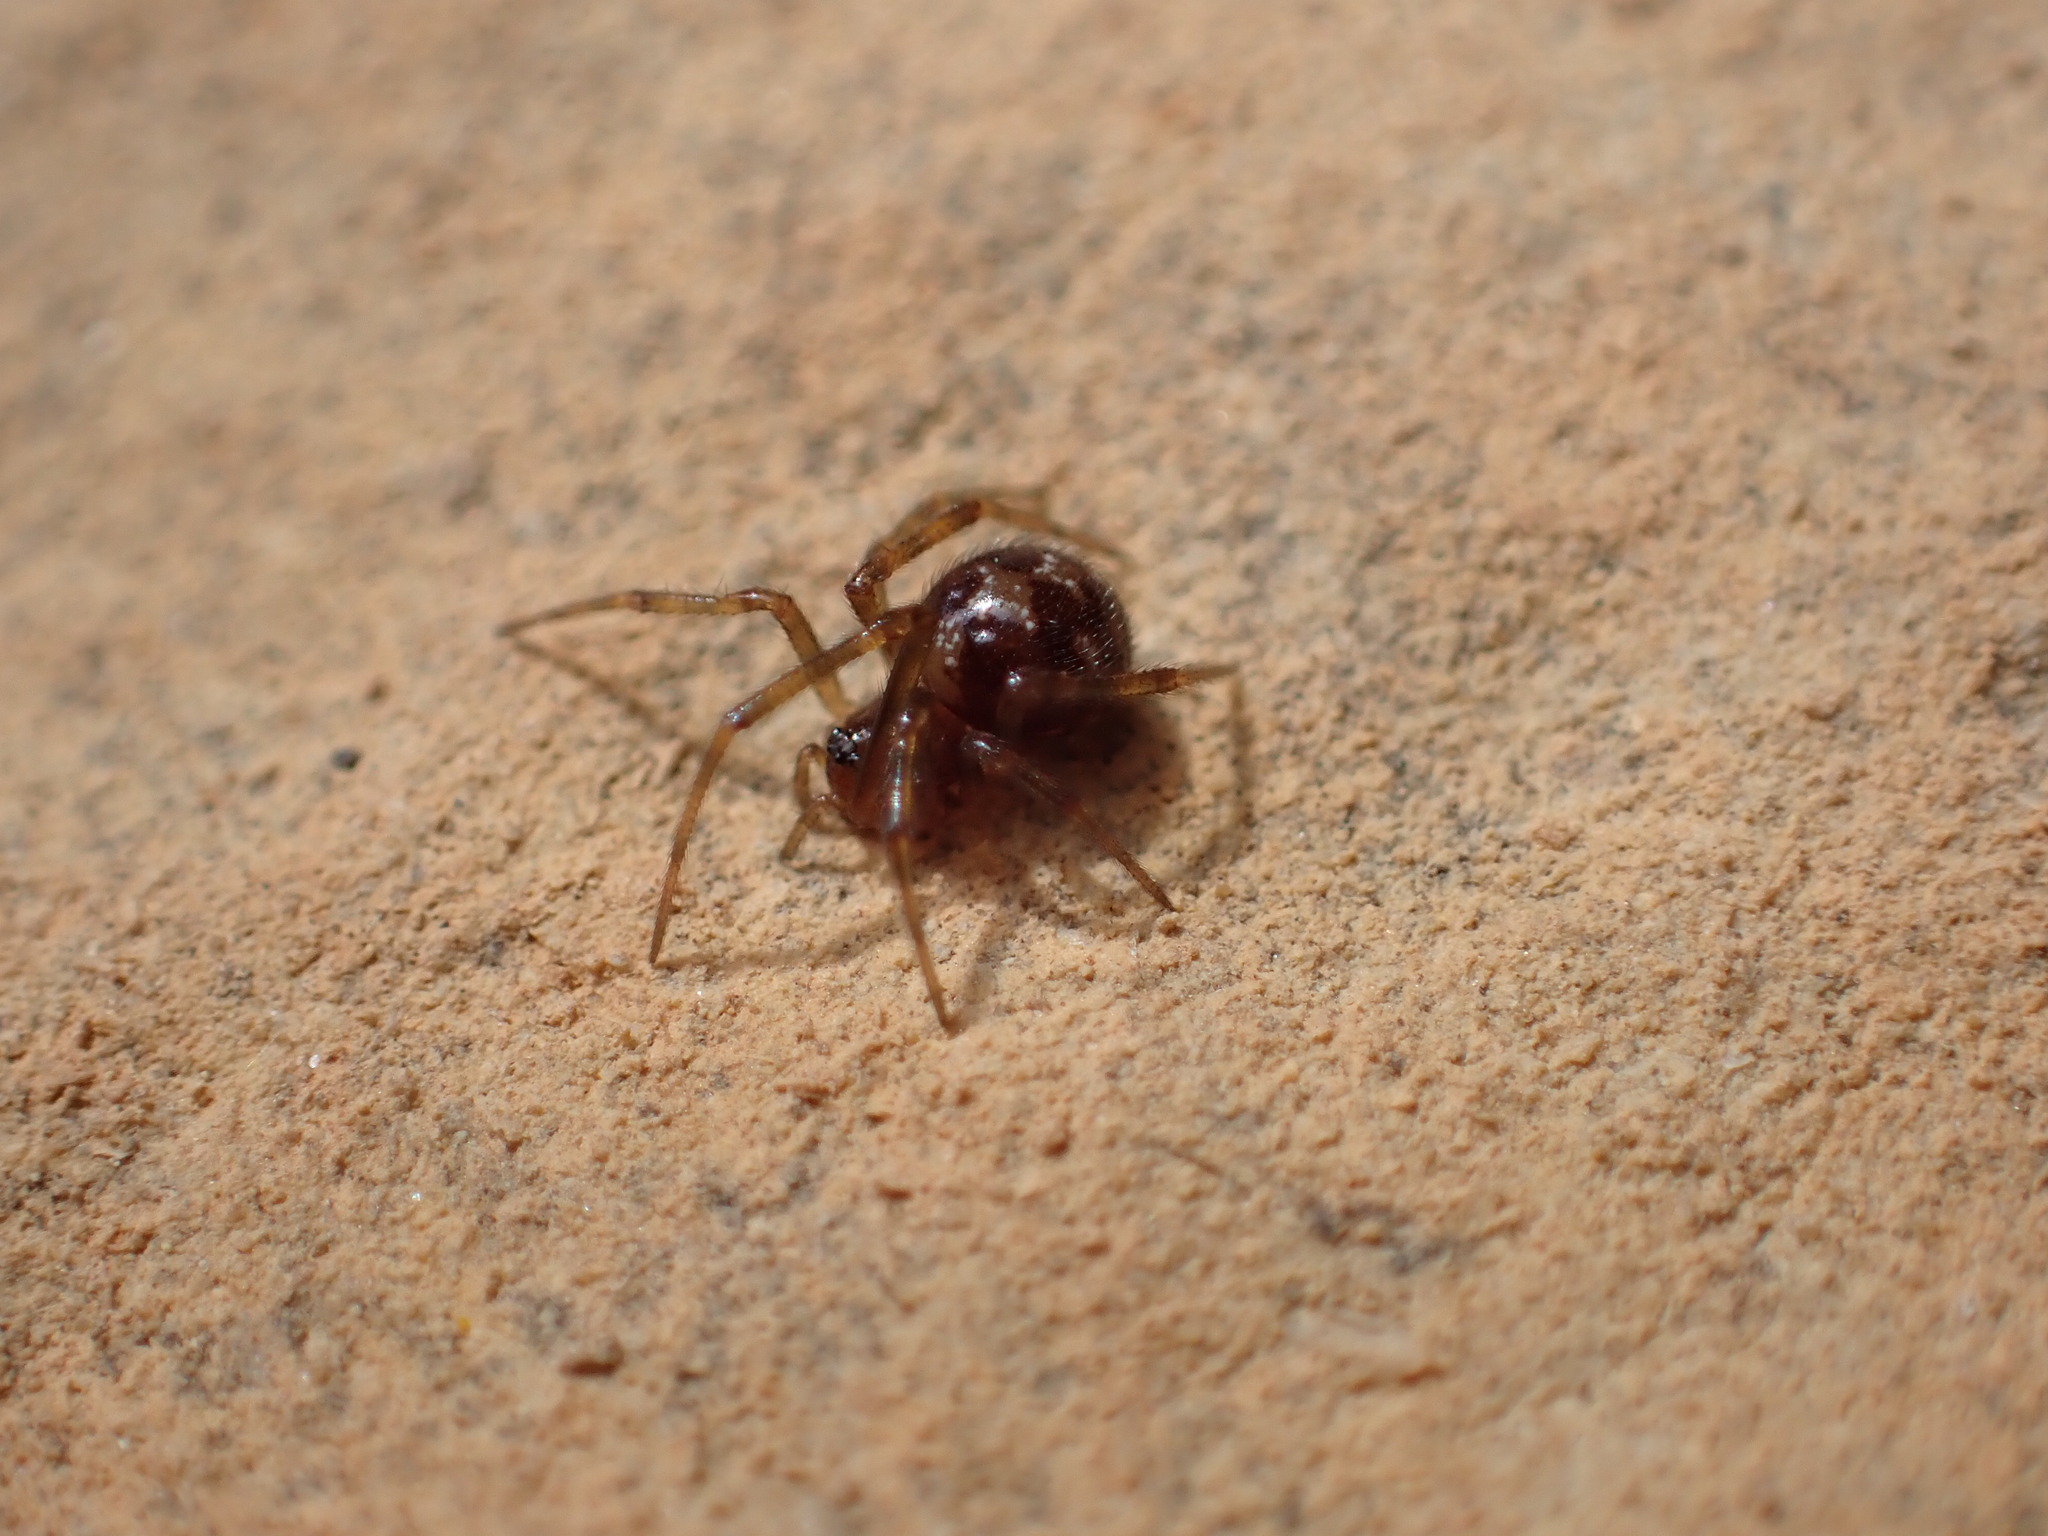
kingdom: Animalia
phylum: Arthropoda
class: Arachnida
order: Araneae
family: Theridiidae
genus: Steatoda
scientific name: Steatoda triangulosa
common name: Triangulate bud spider
